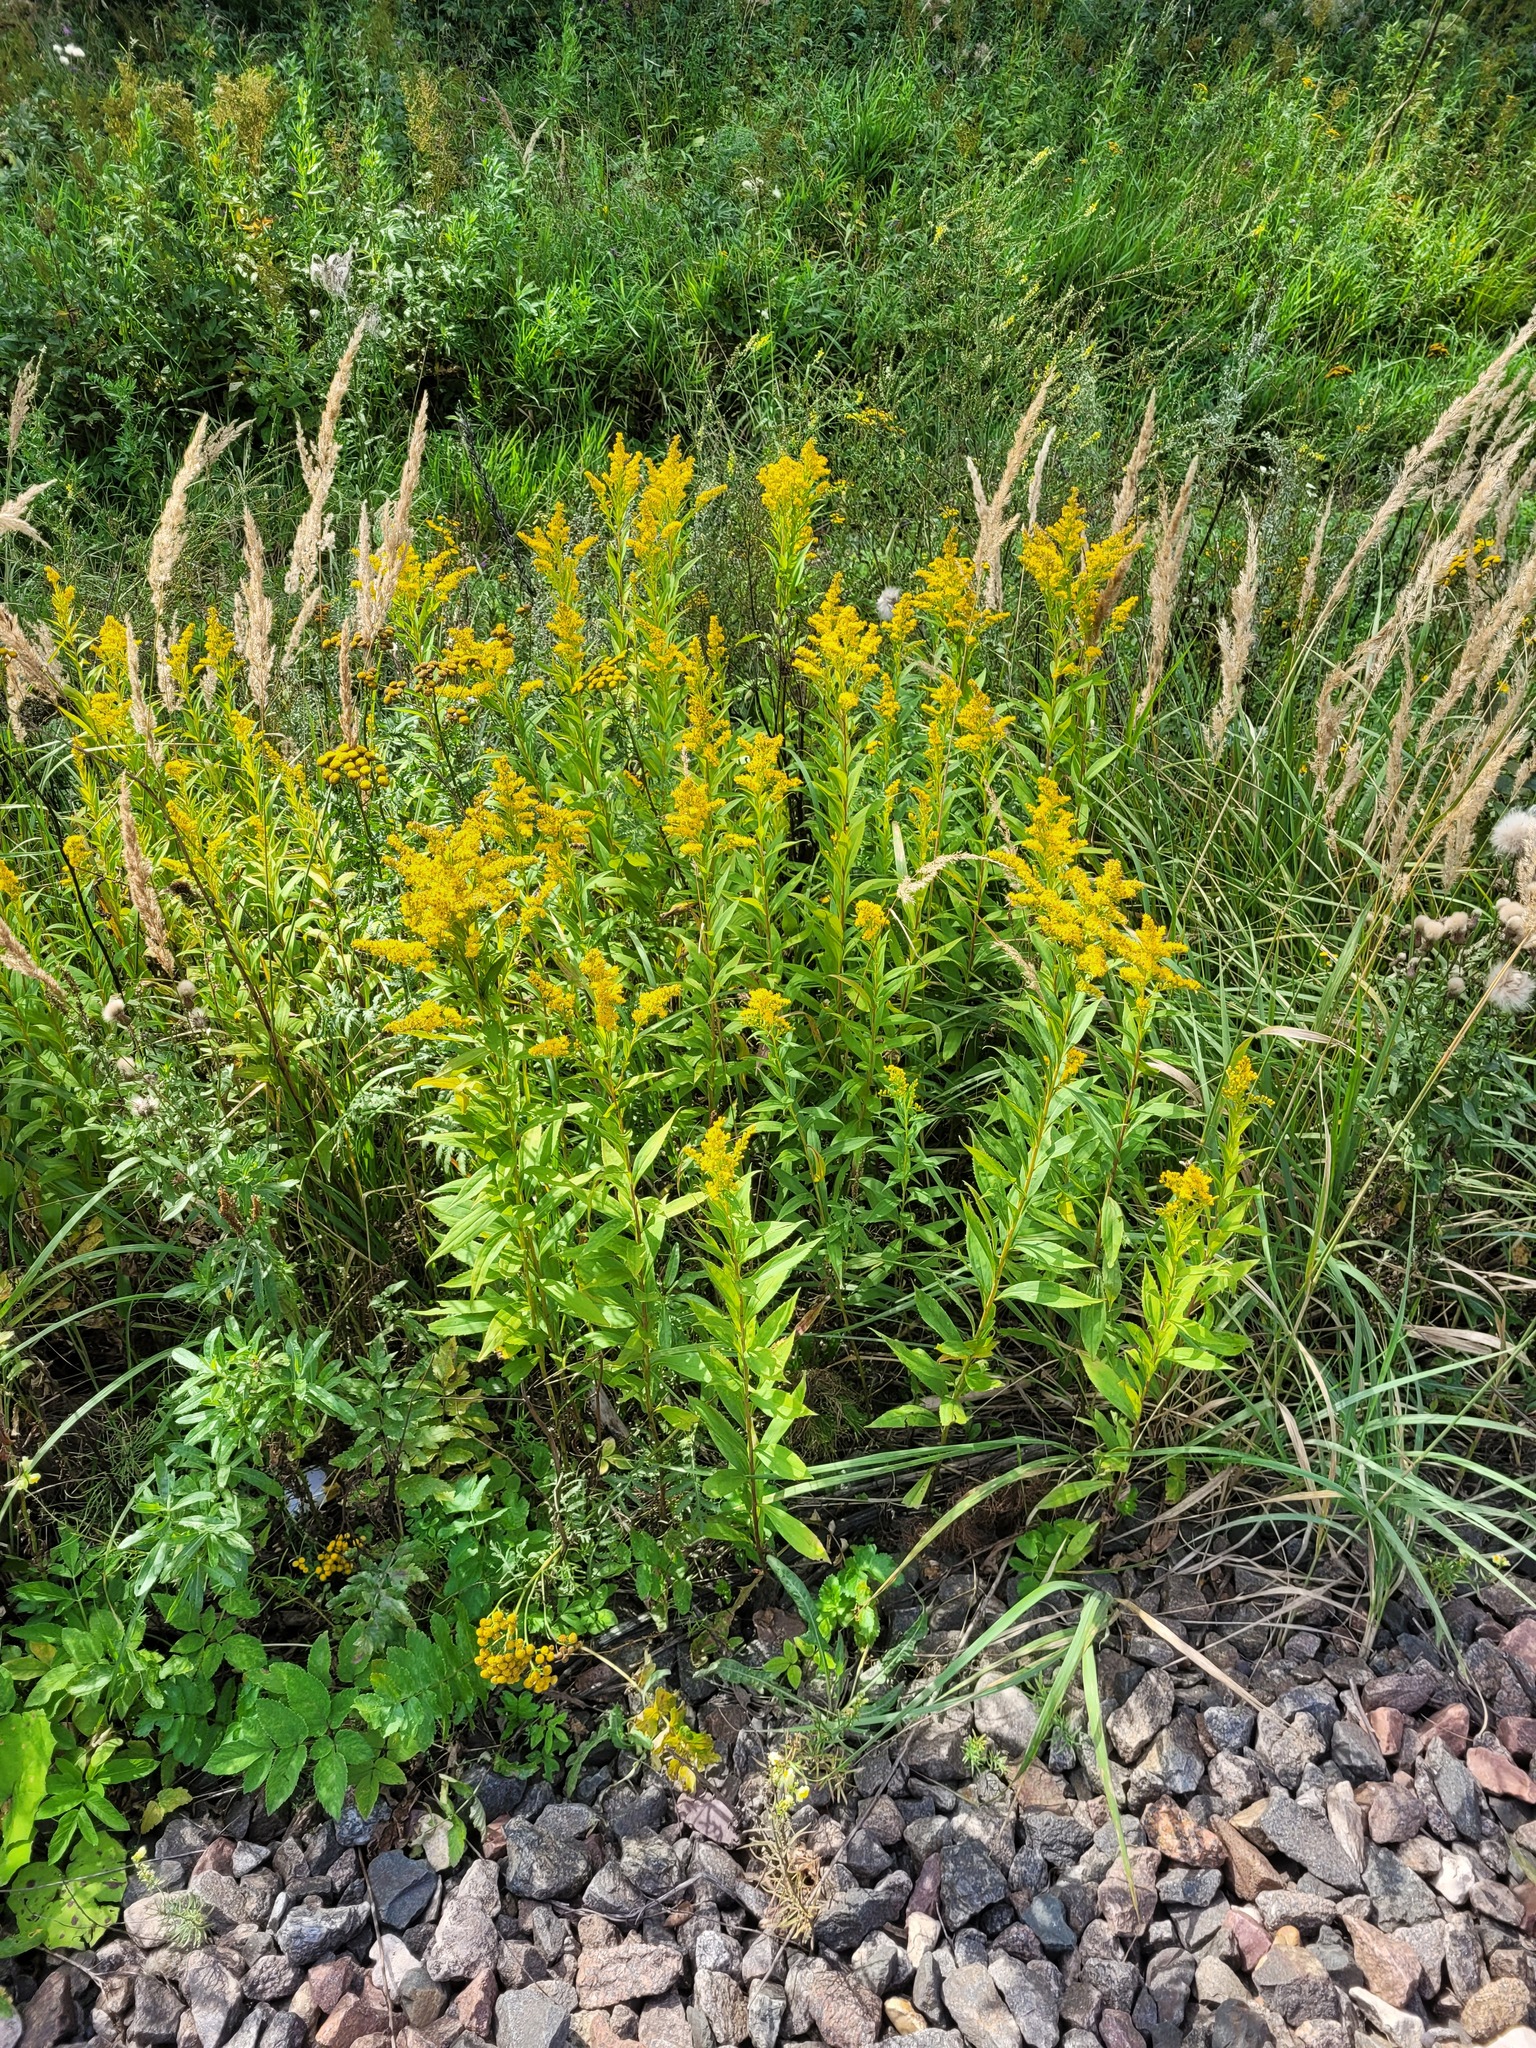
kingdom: Plantae
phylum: Tracheophyta
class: Magnoliopsida
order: Asterales
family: Asteraceae
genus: Solidago
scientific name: Solidago gigantea
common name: Giant goldenrod
